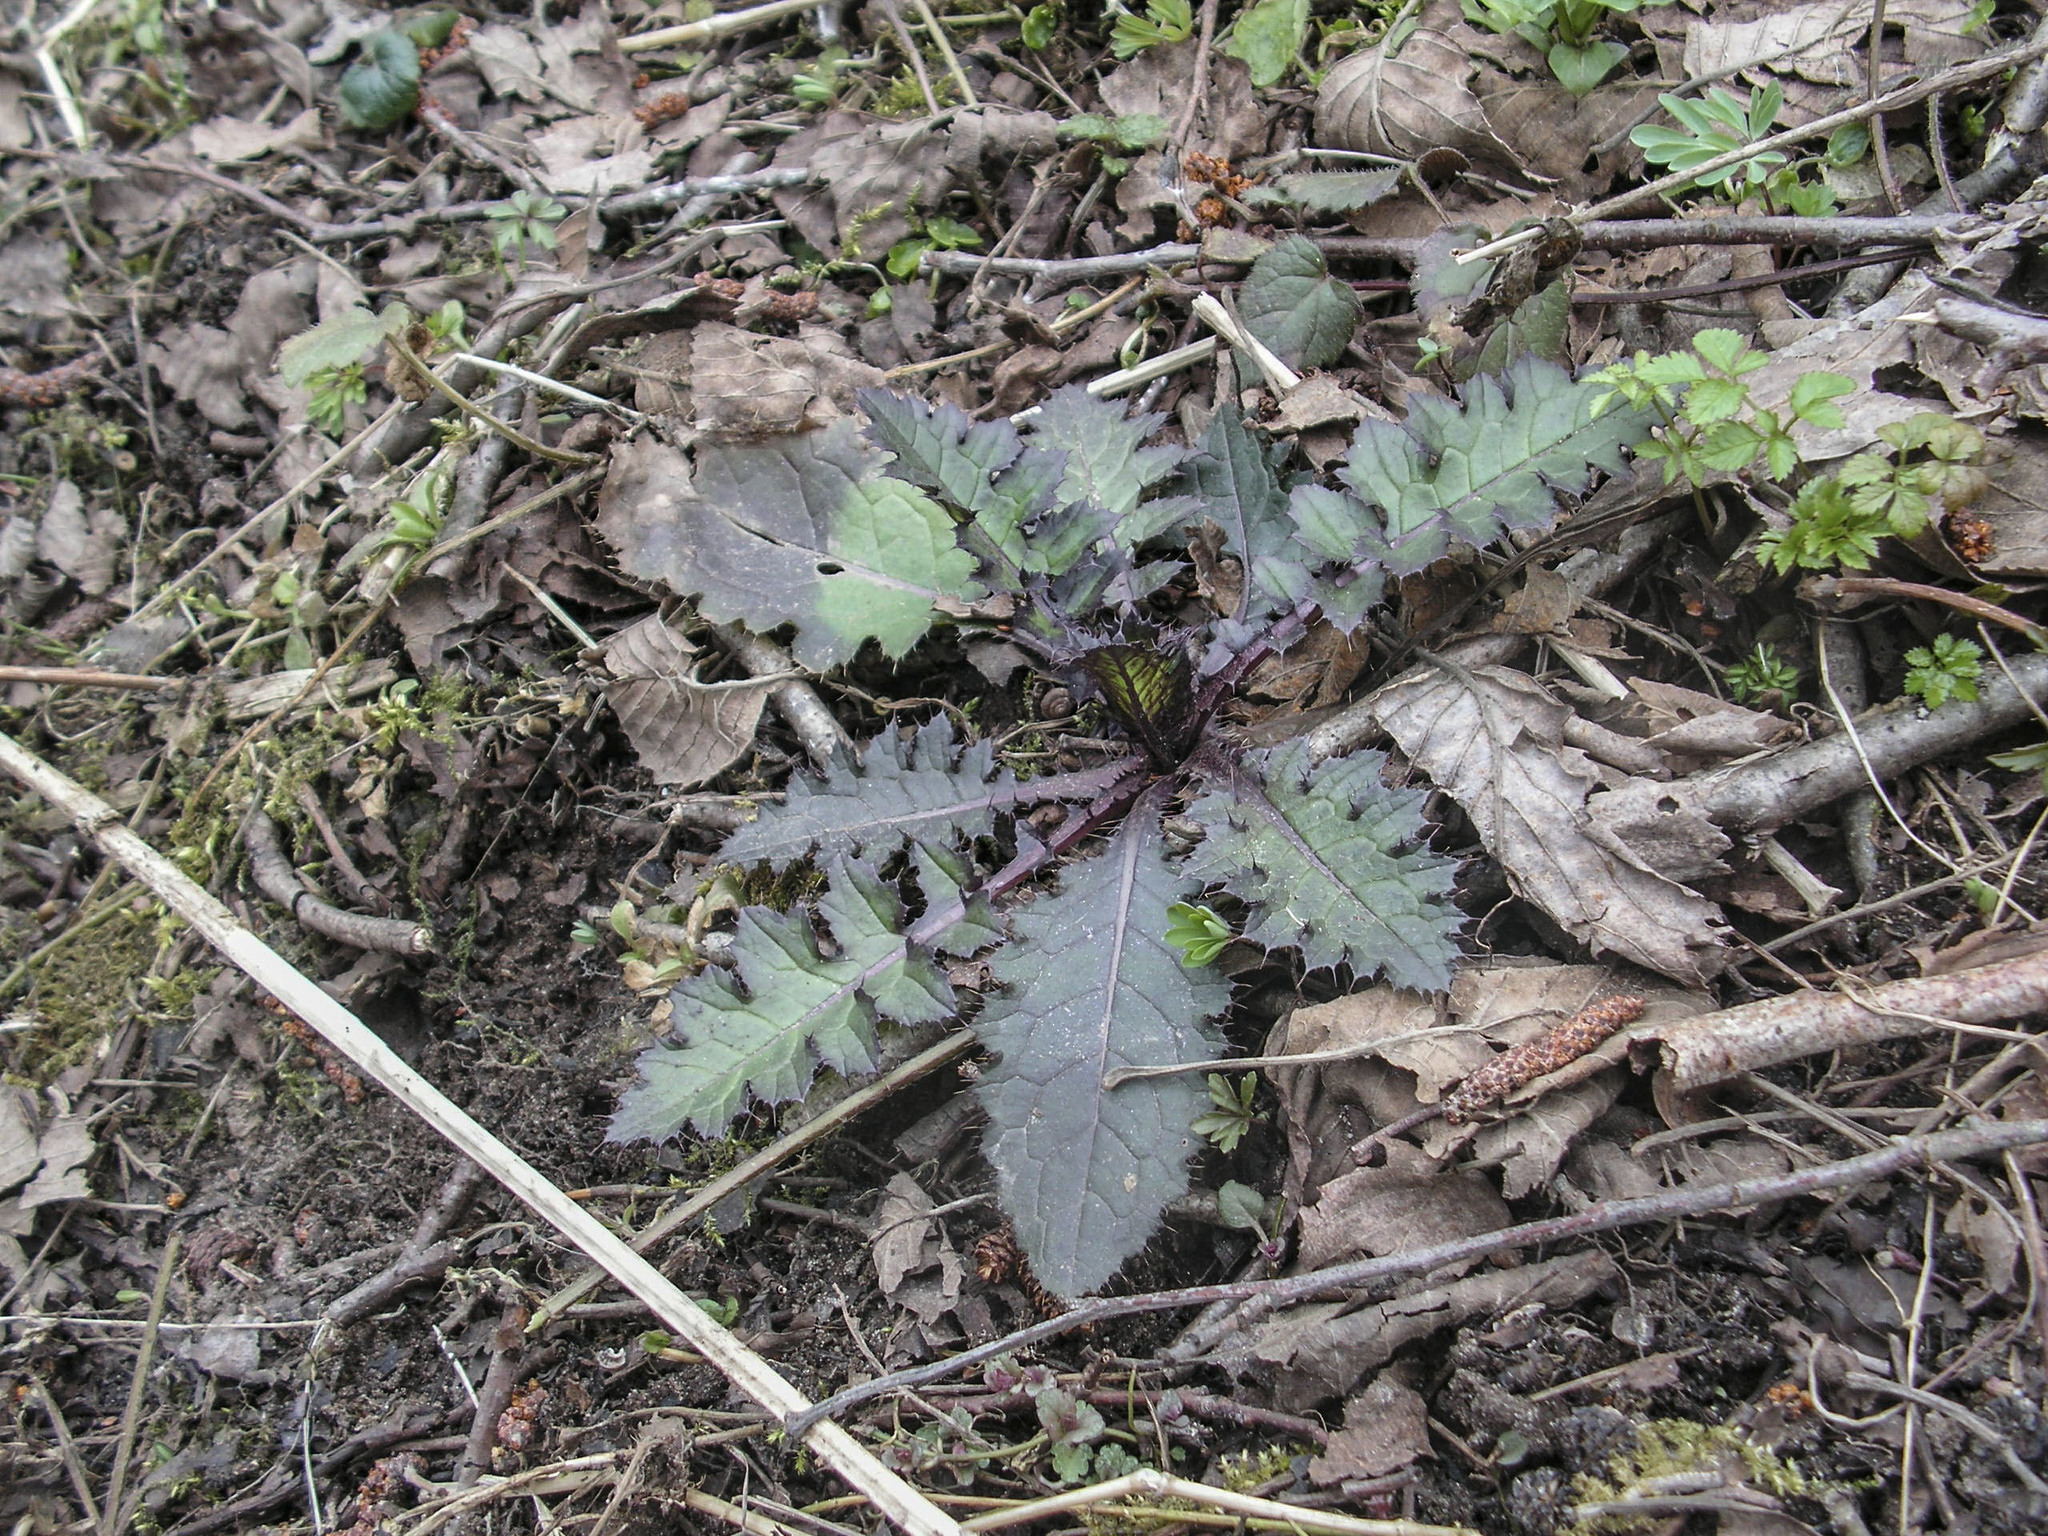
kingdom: Plantae
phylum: Tracheophyta
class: Magnoliopsida
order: Asterales
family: Asteraceae
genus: Cirsium
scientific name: Cirsium palustre
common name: Marsh thistle
